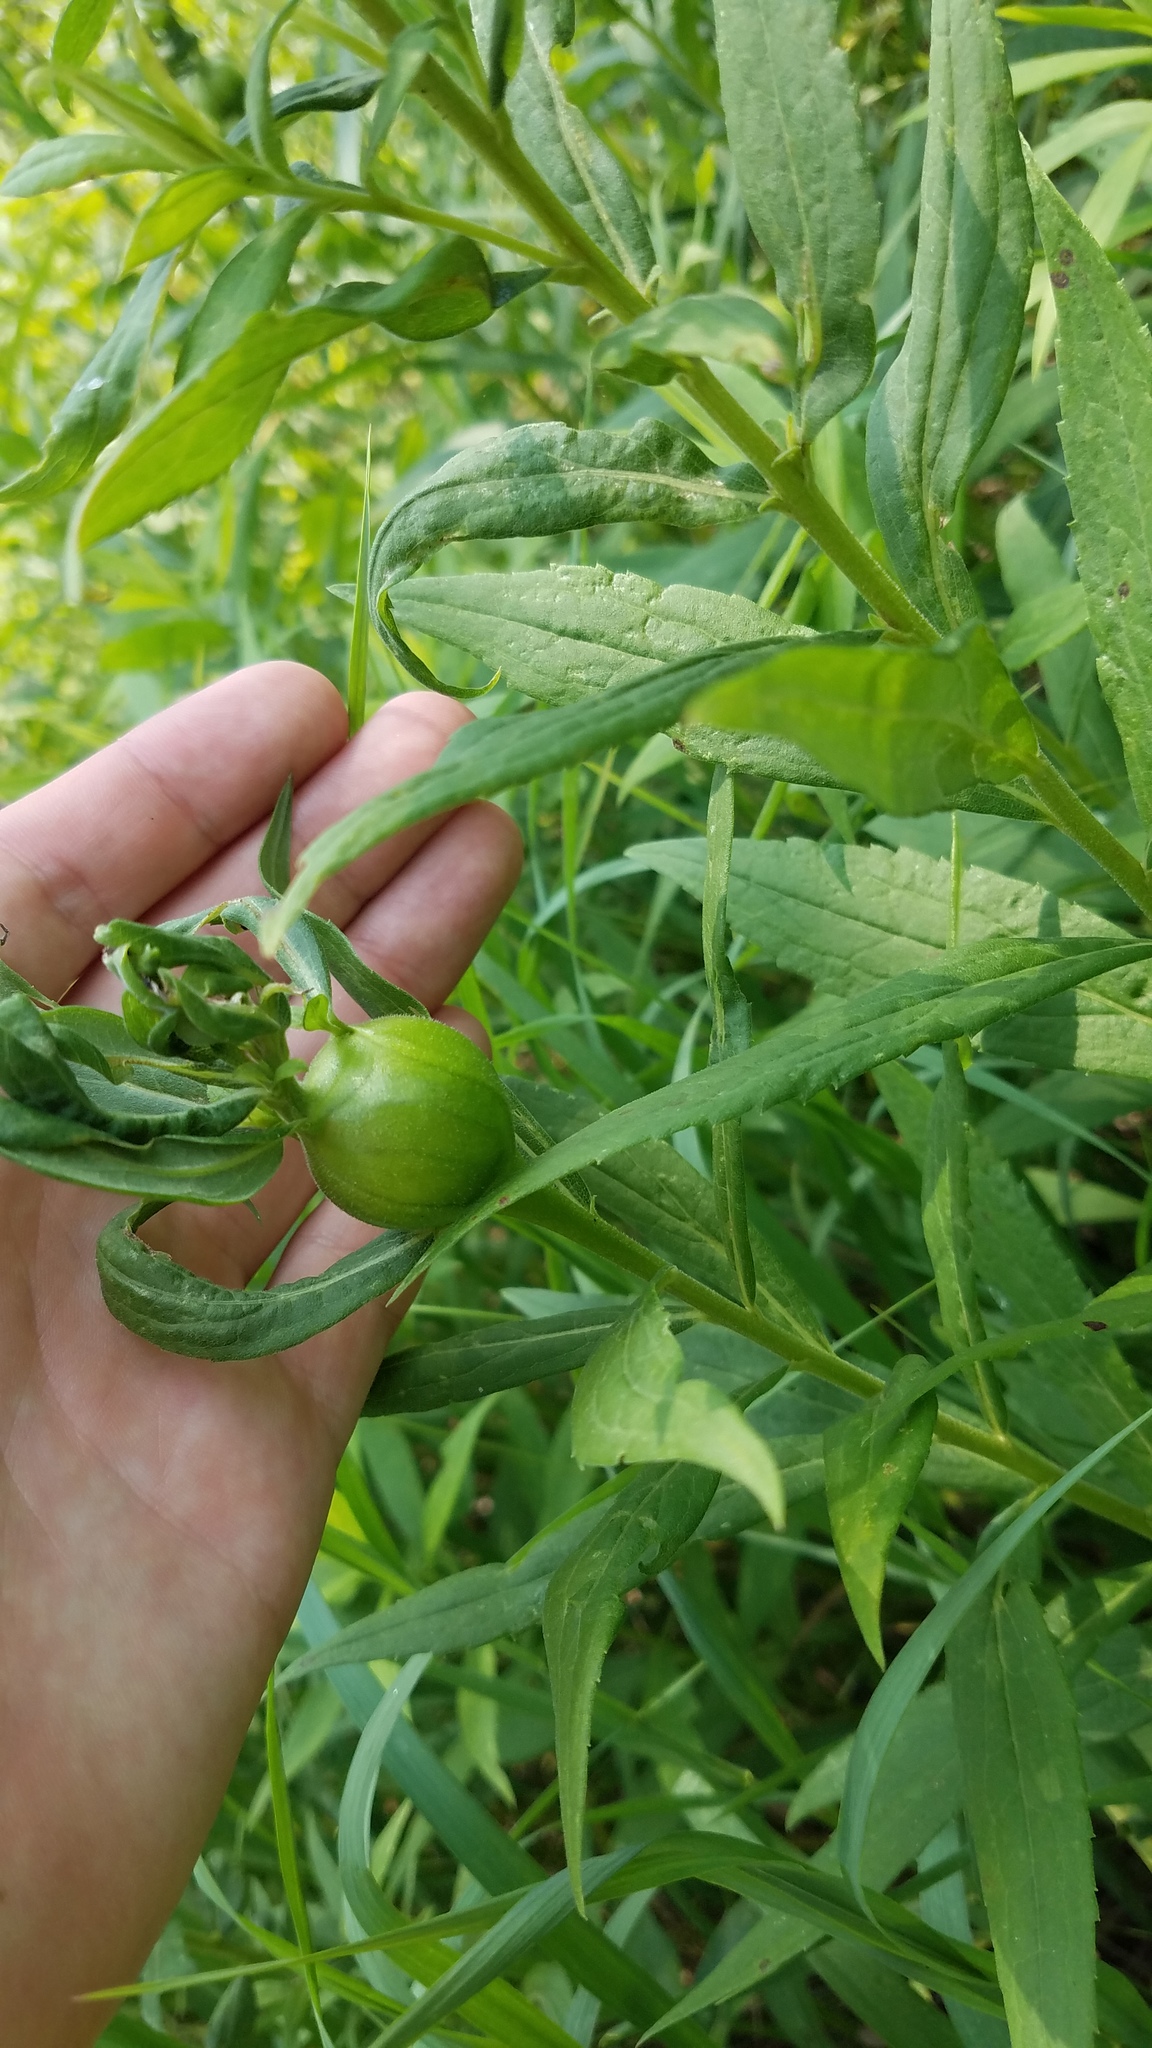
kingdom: Animalia
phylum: Arthropoda
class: Insecta
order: Diptera
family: Tephritidae
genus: Eurosta
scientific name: Eurosta solidaginis
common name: Goldenrod gall fly
